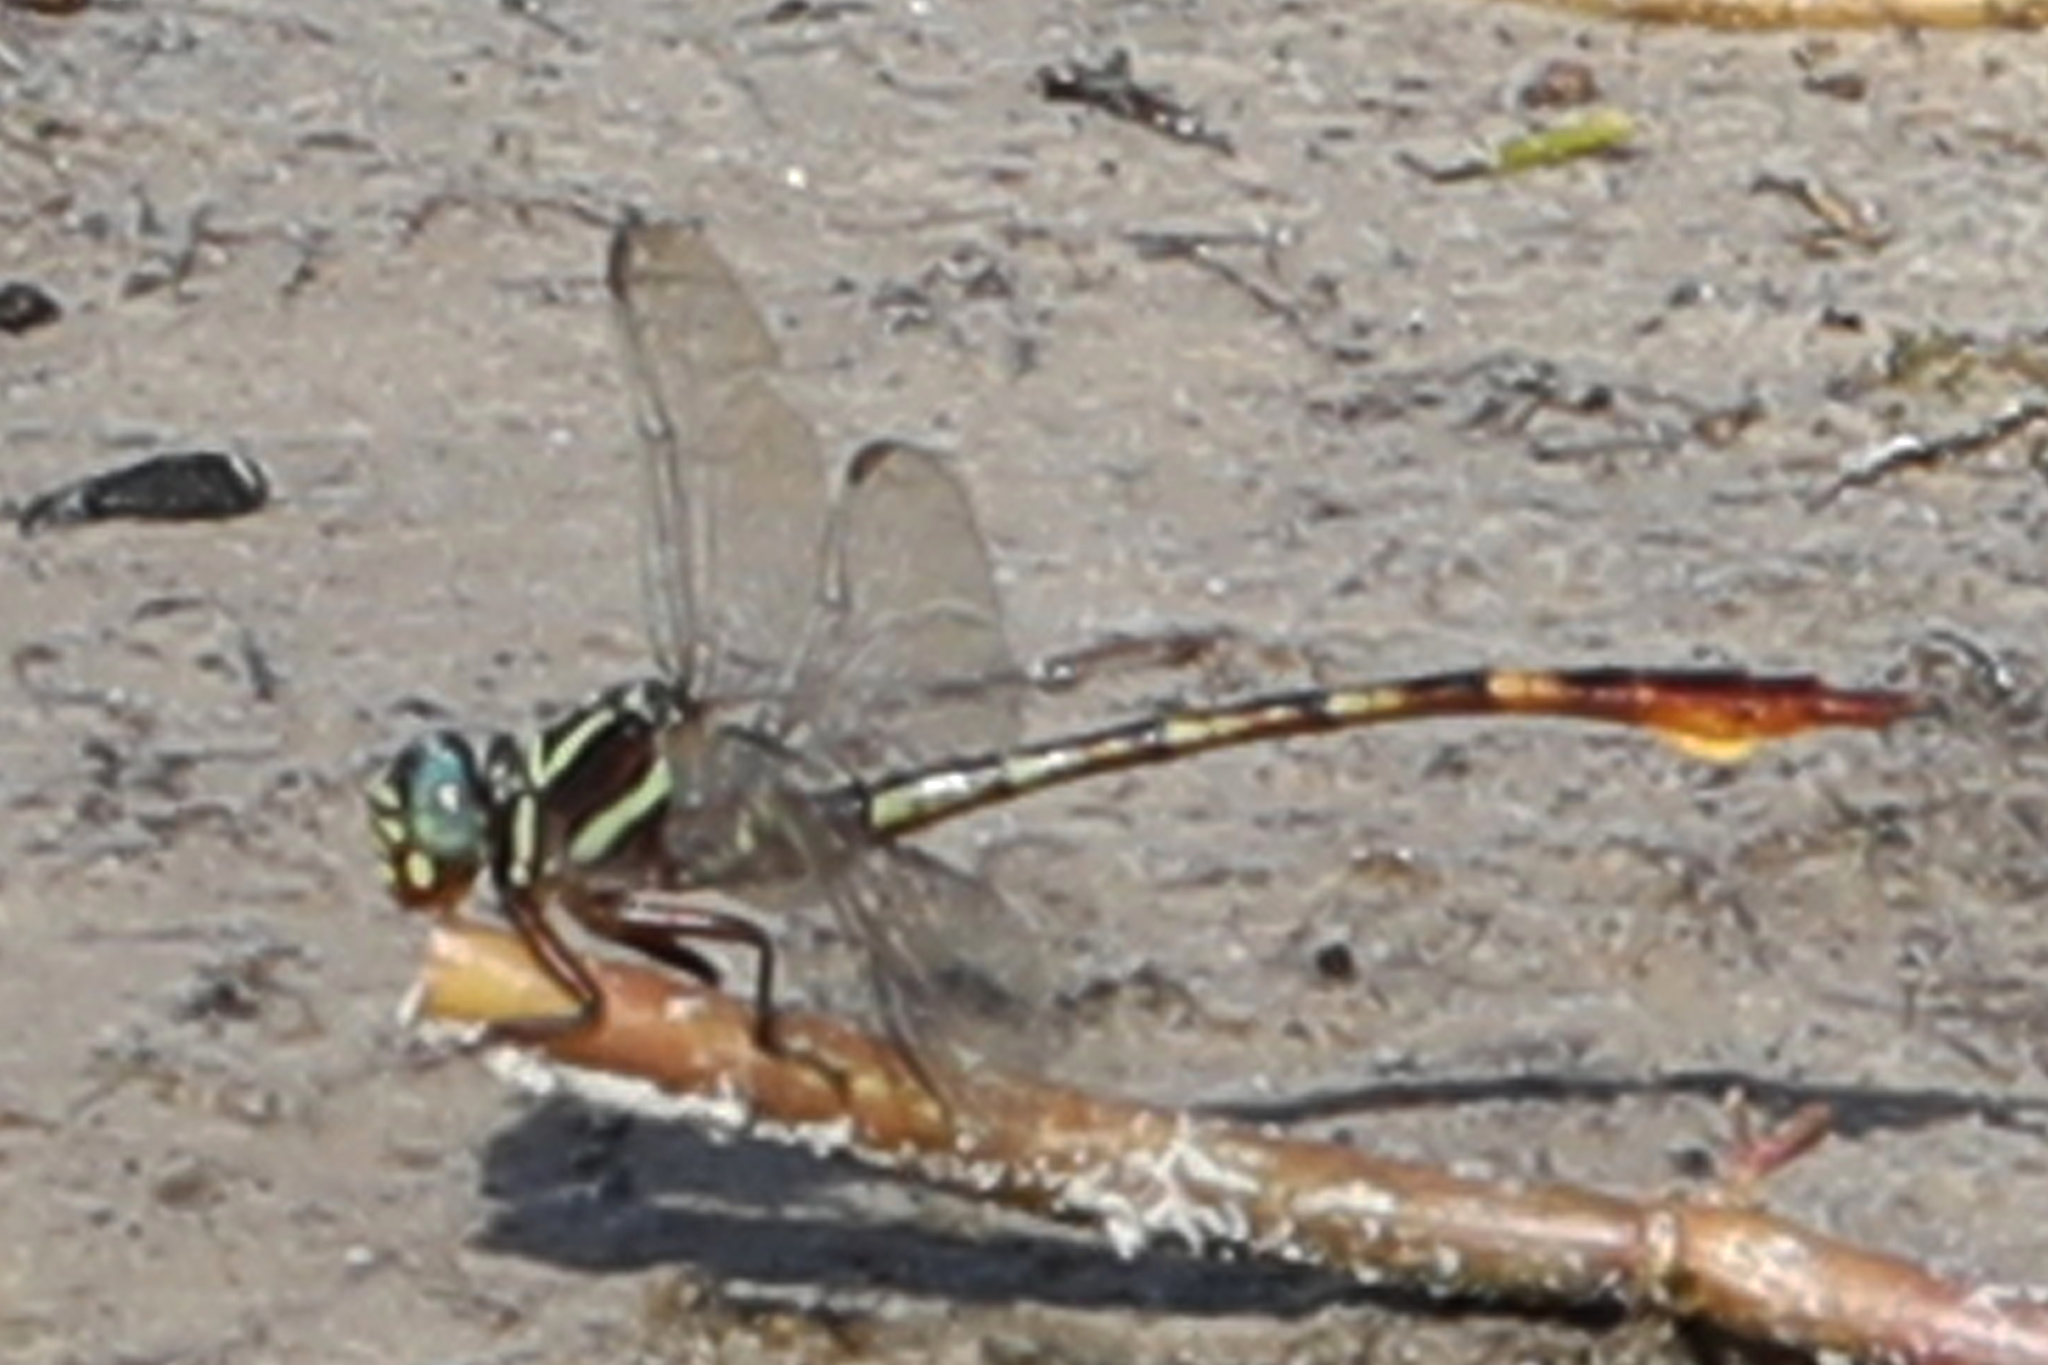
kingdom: Animalia
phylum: Arthropoda
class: Insecta
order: Odonata
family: Gomphidae
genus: Aphylla
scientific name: Aphylla williamsoni
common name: Two-striped forceptail
